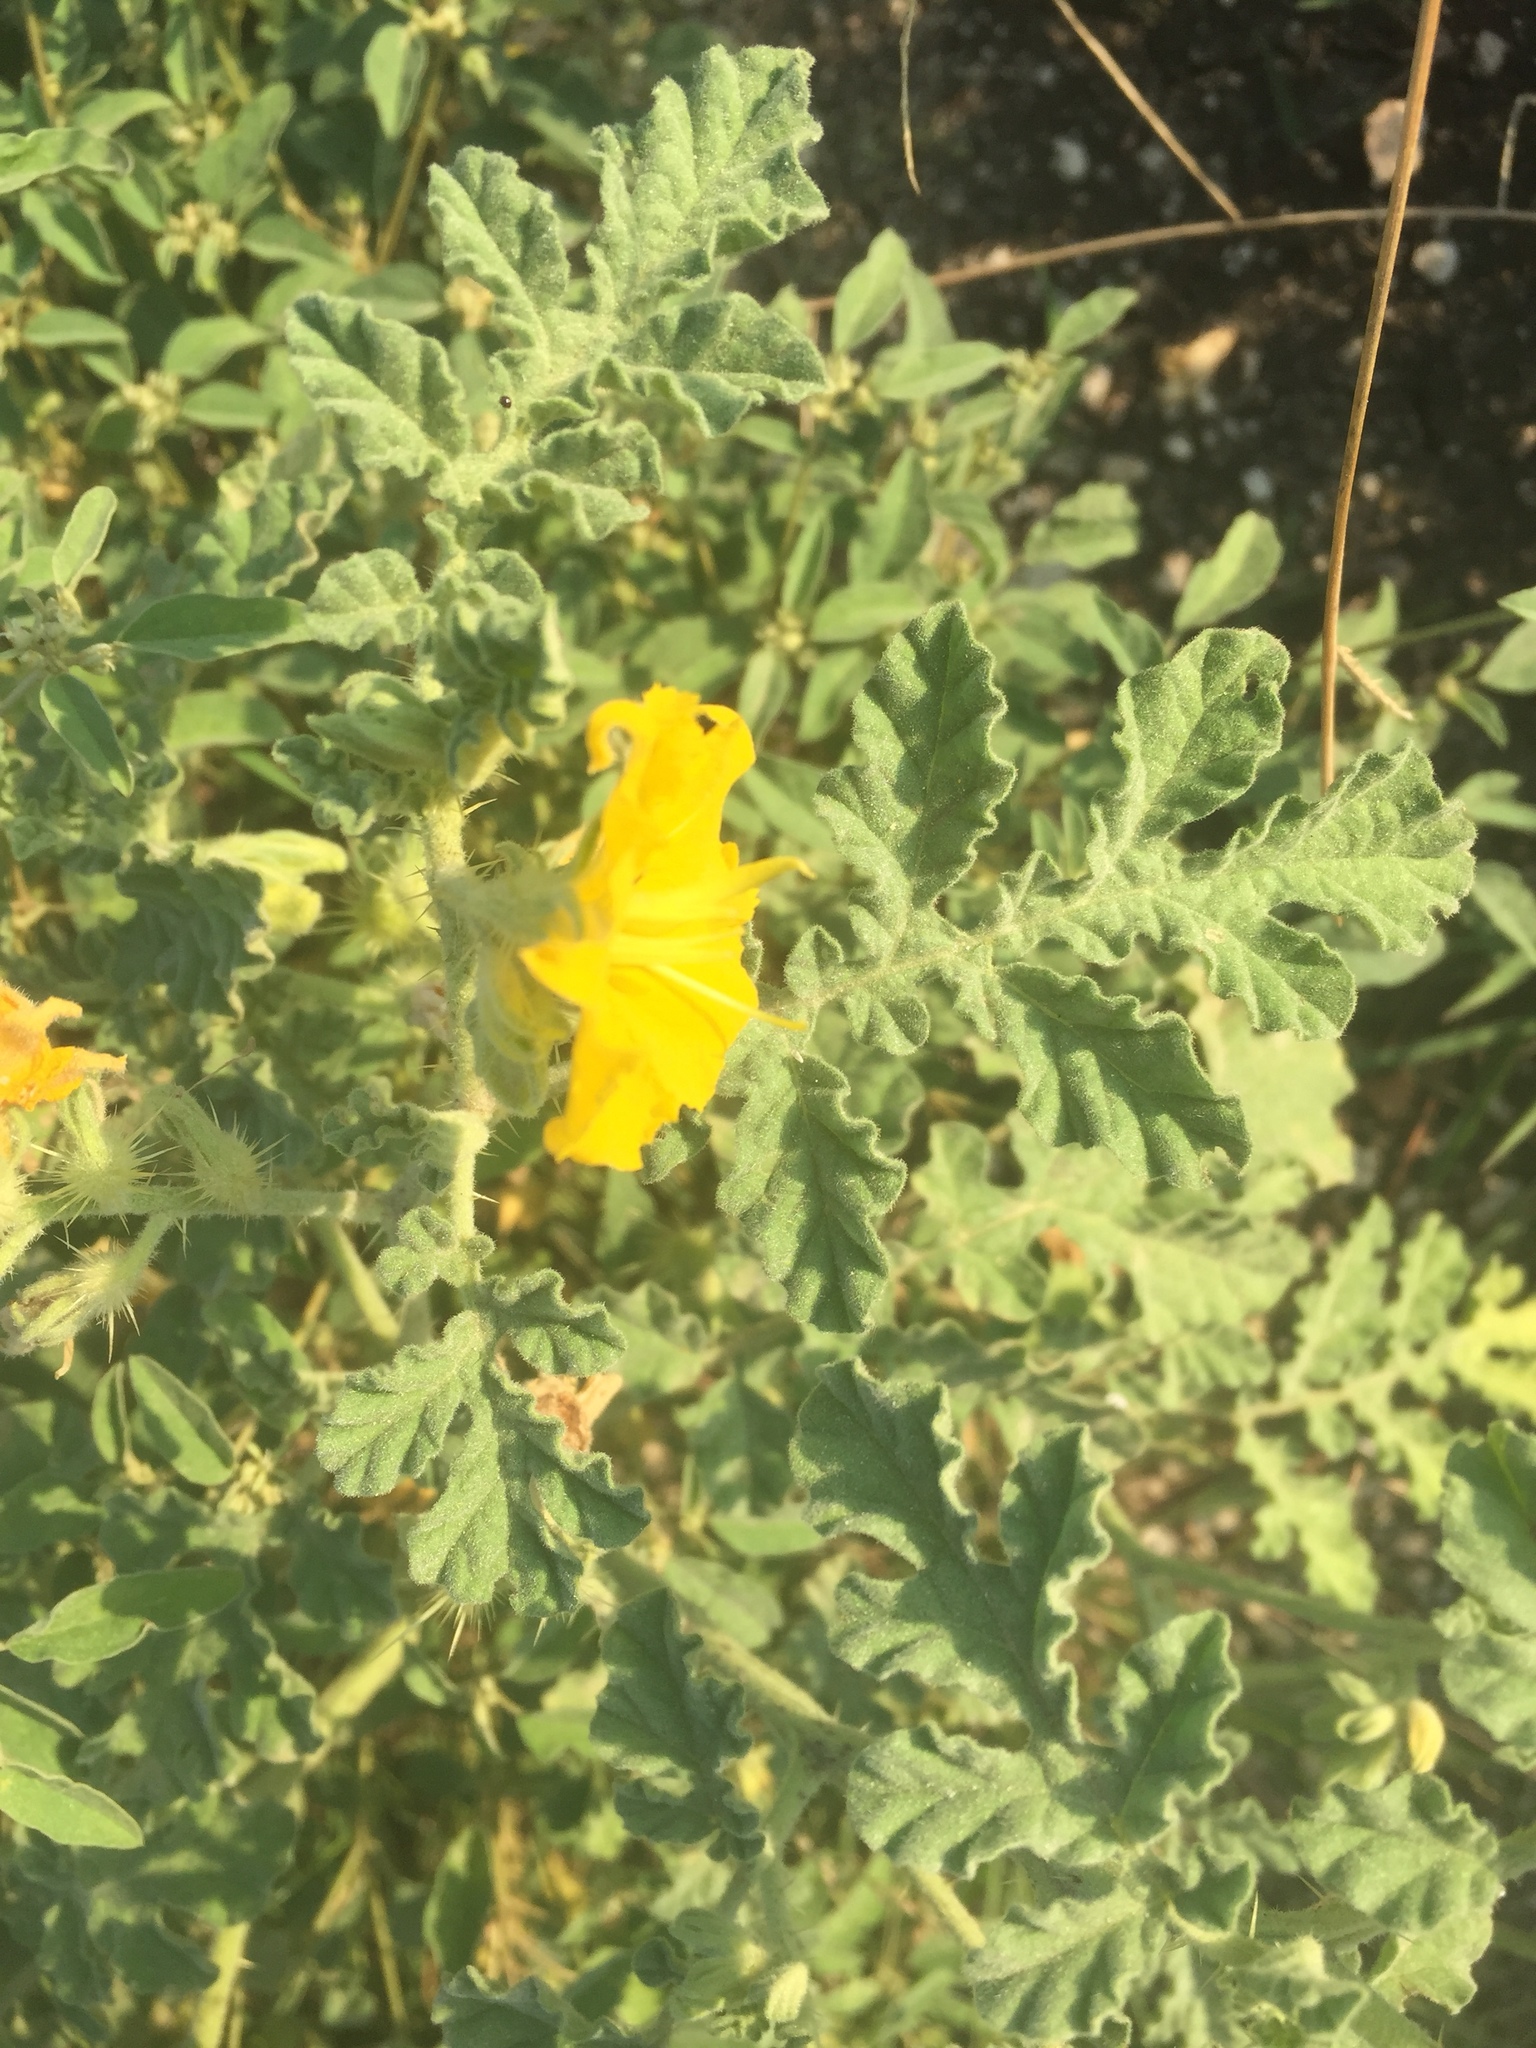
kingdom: Plantae
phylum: Tracheophyta
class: Magnoliopsida
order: Solanales
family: Solanaceae
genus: Solanum
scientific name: Solanum angustifolium
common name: Buffalobur nightshade
